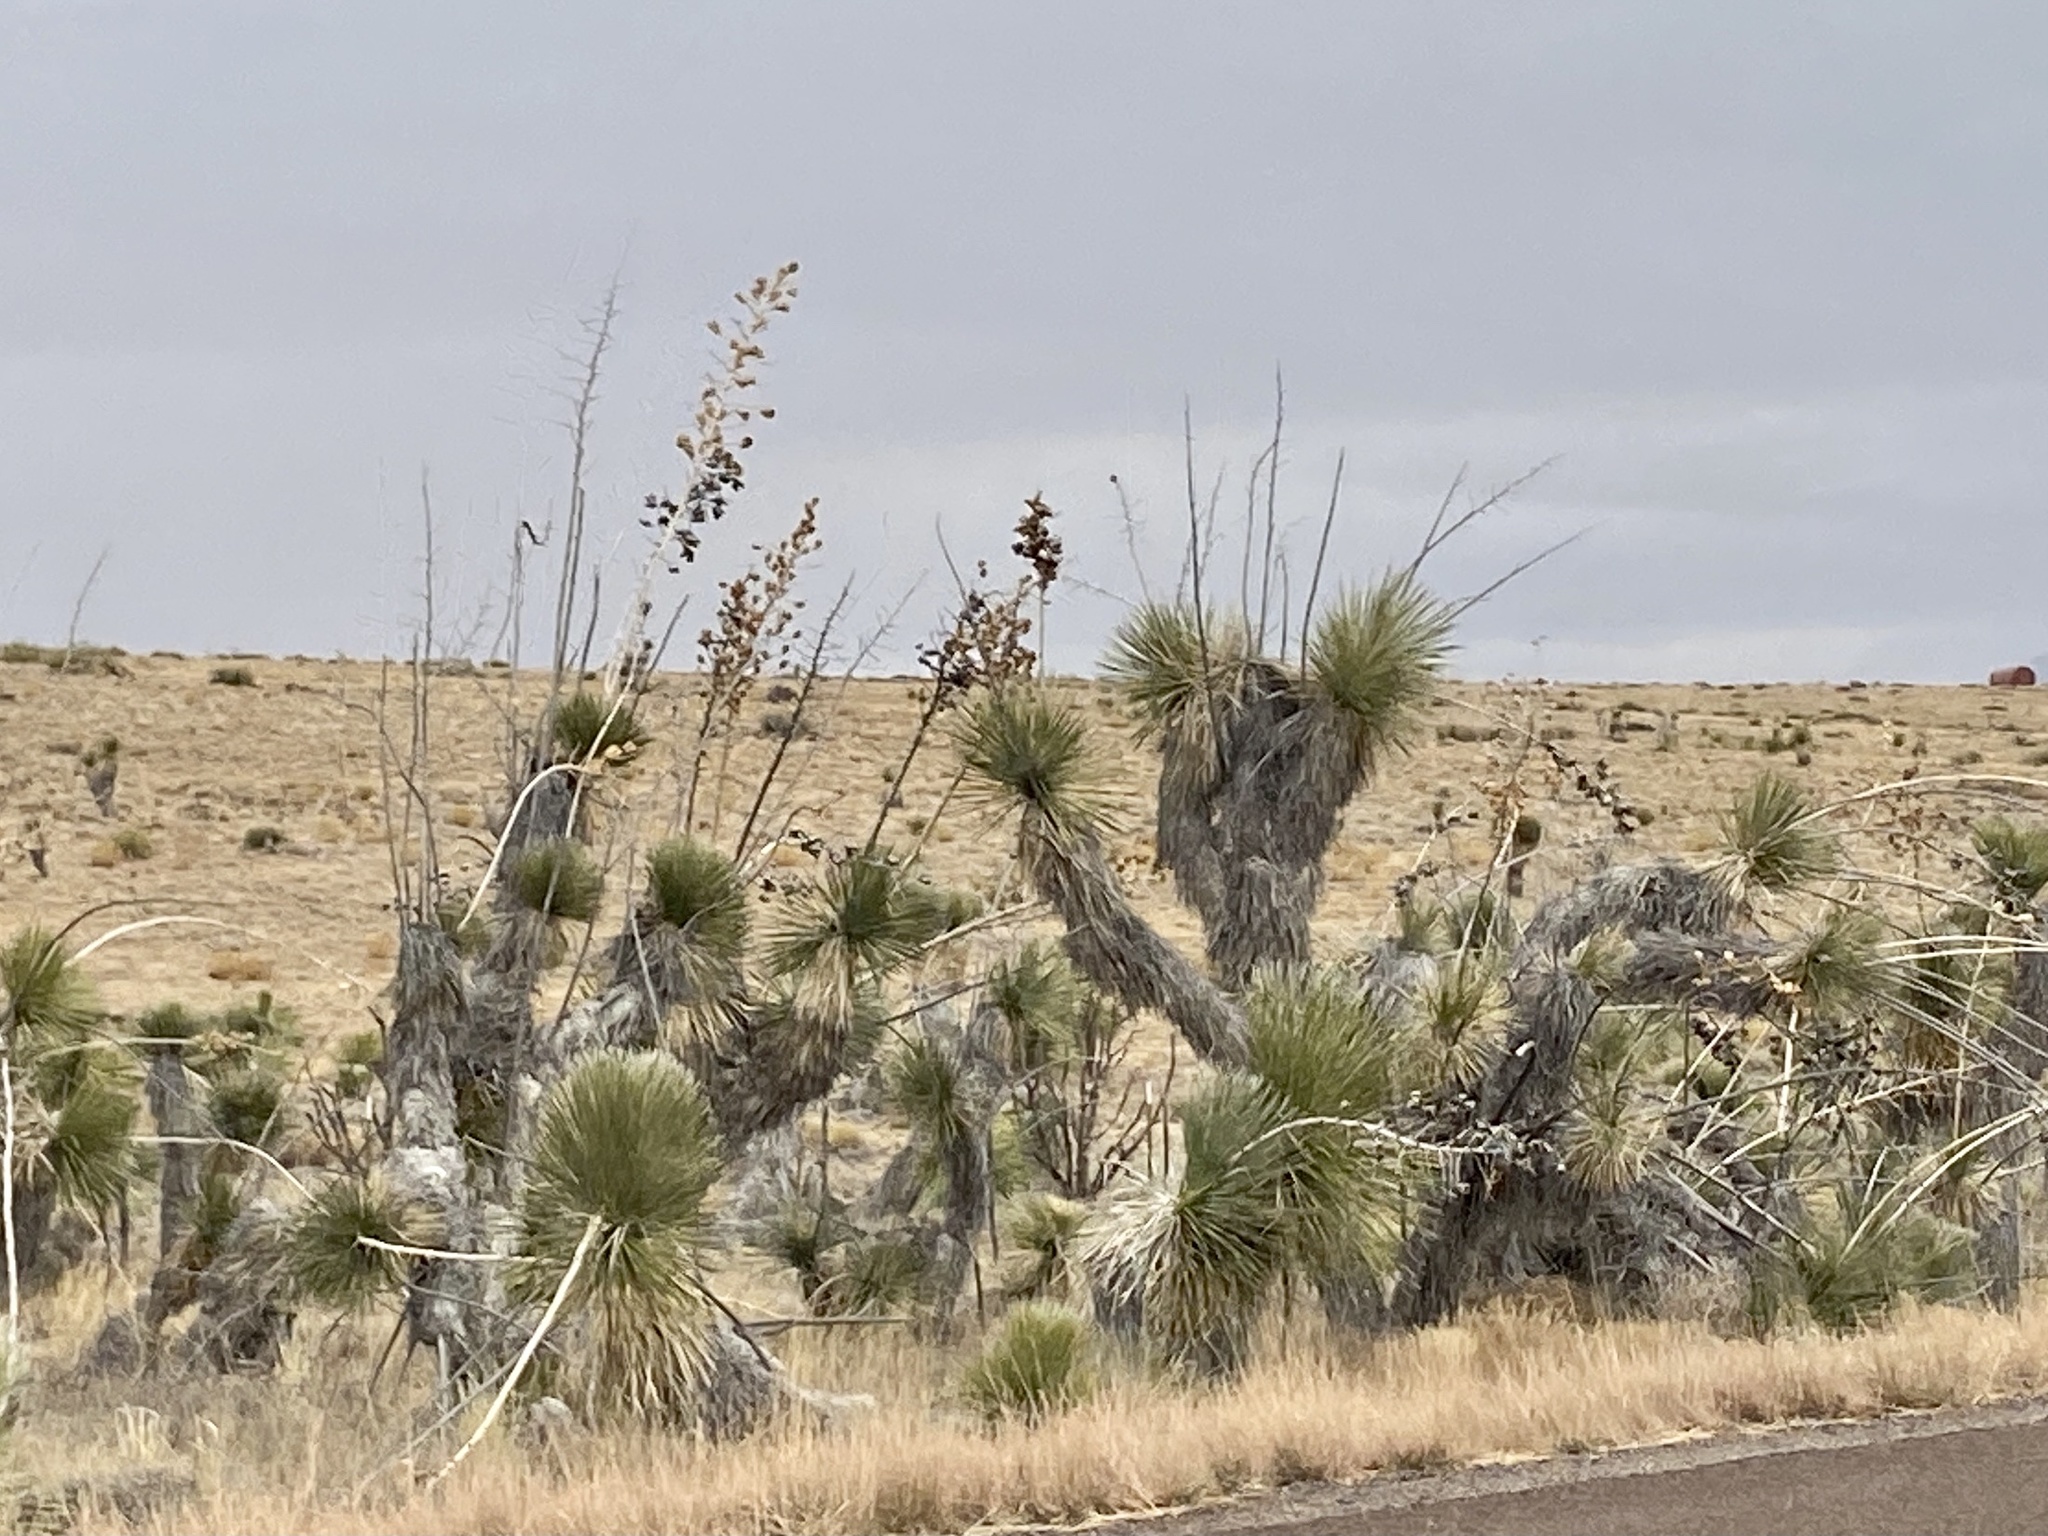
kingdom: Plantae
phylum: Tracheophyta
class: Liliopsida
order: Asparagales
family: Asparagaceae
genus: Yucca
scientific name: Yucca elata
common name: Palmella
